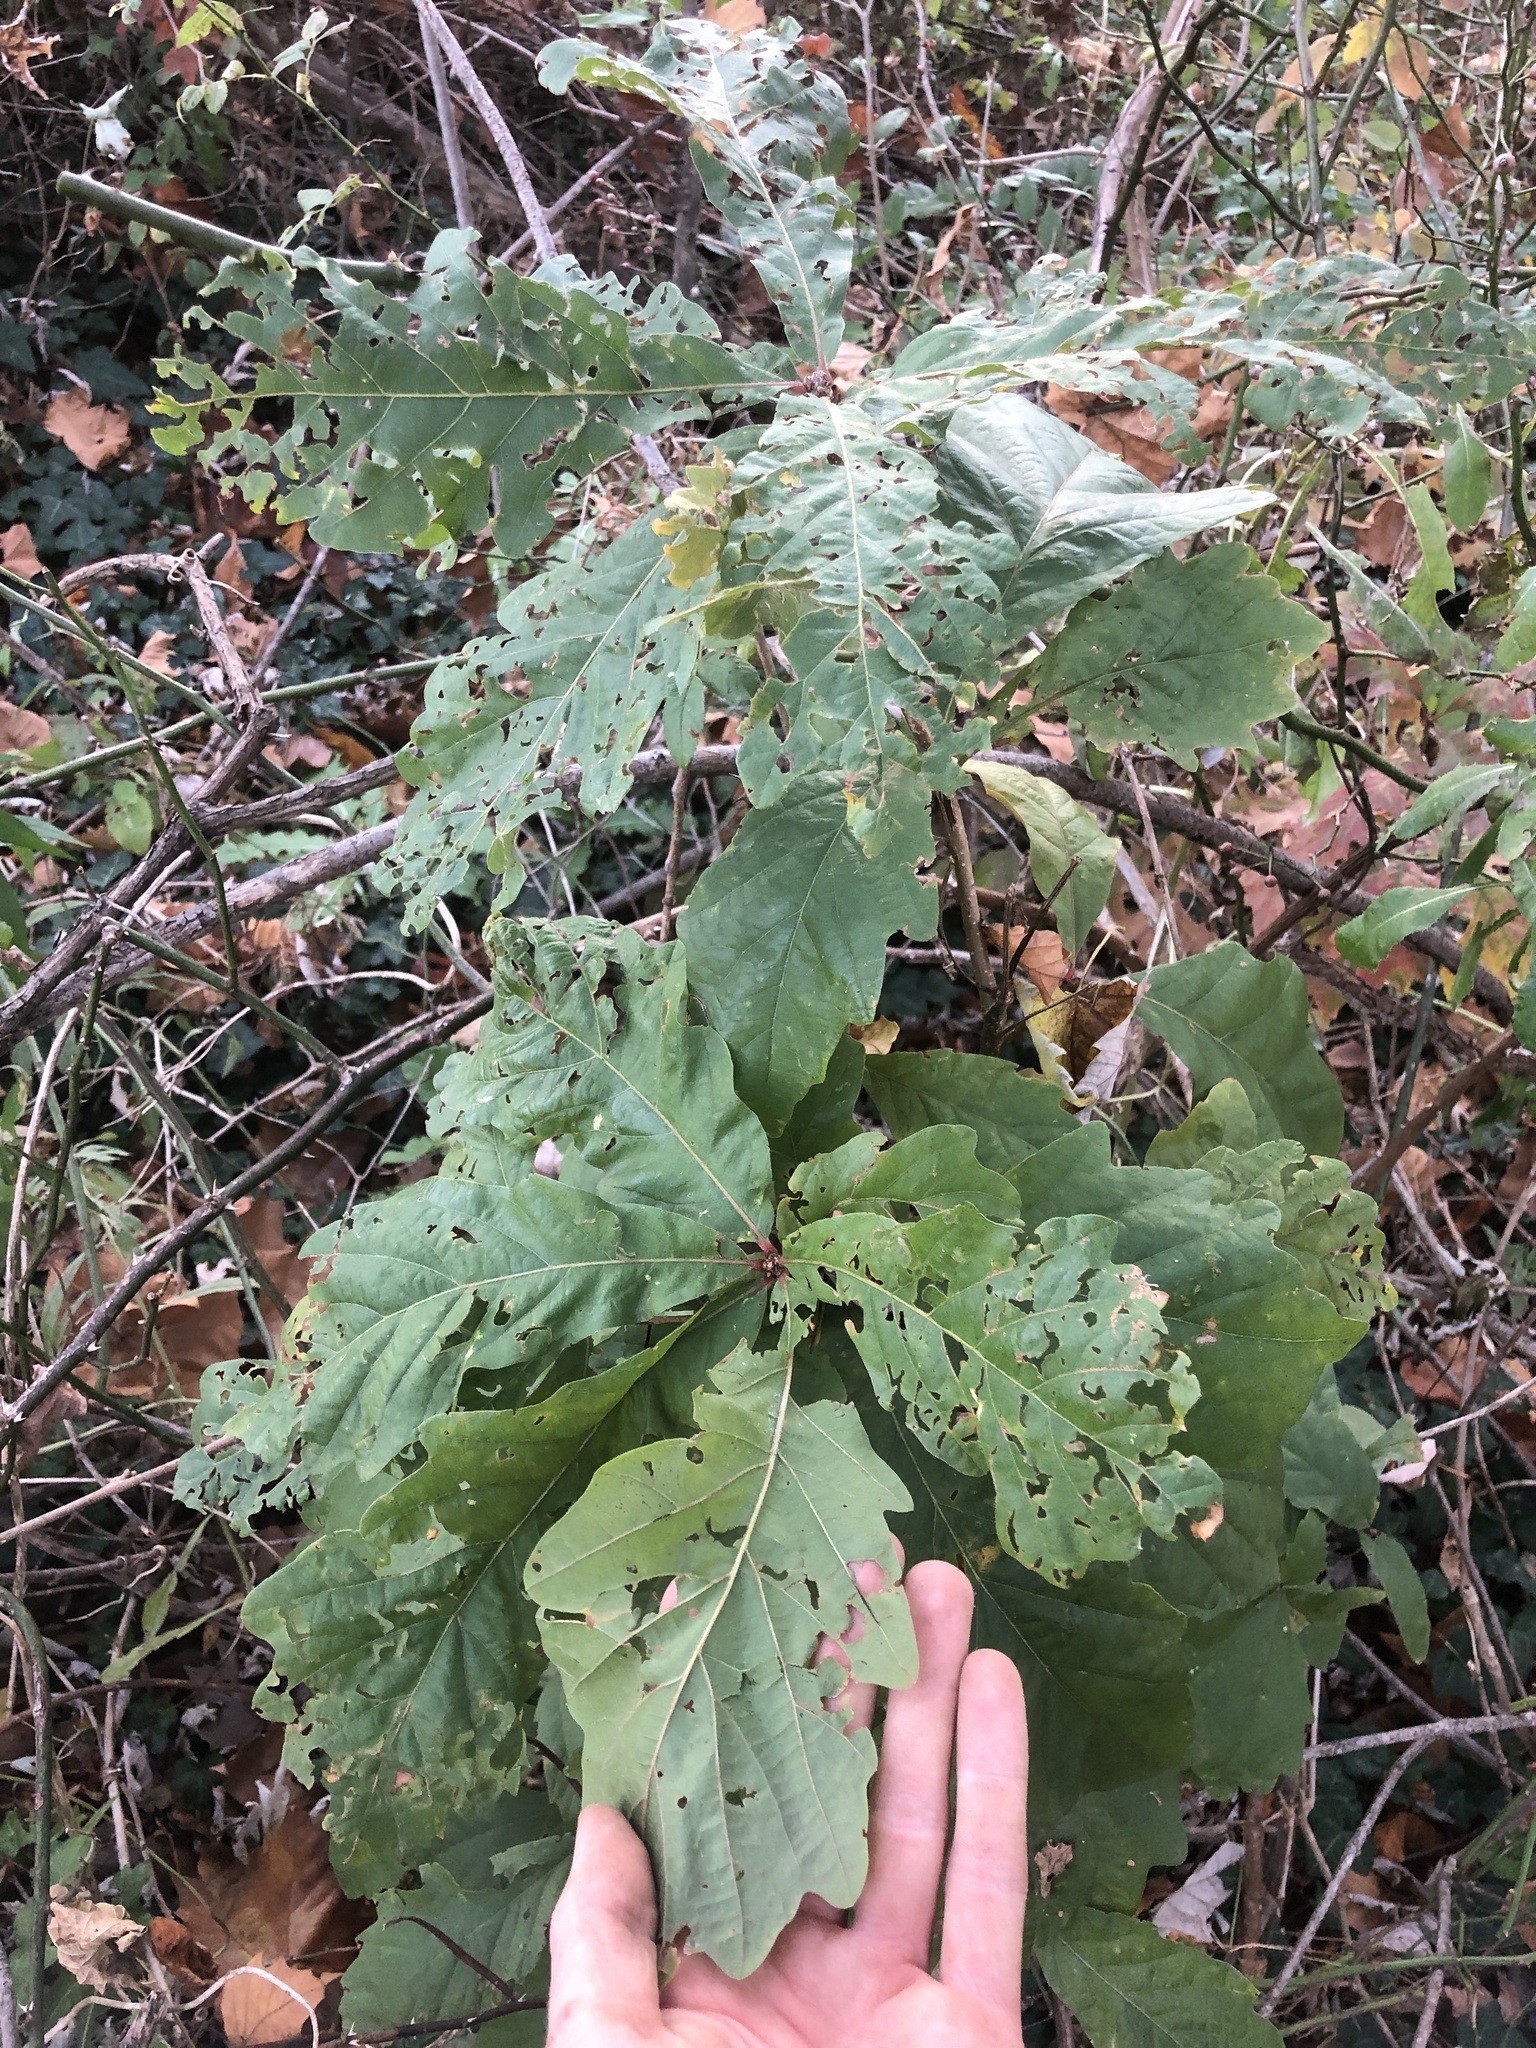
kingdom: Plantae
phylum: Tracheophyta
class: Magnoliopsida
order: Fagales
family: Fagaceae
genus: Quercus
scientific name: Quercus bicolor
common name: Swamp white oak
